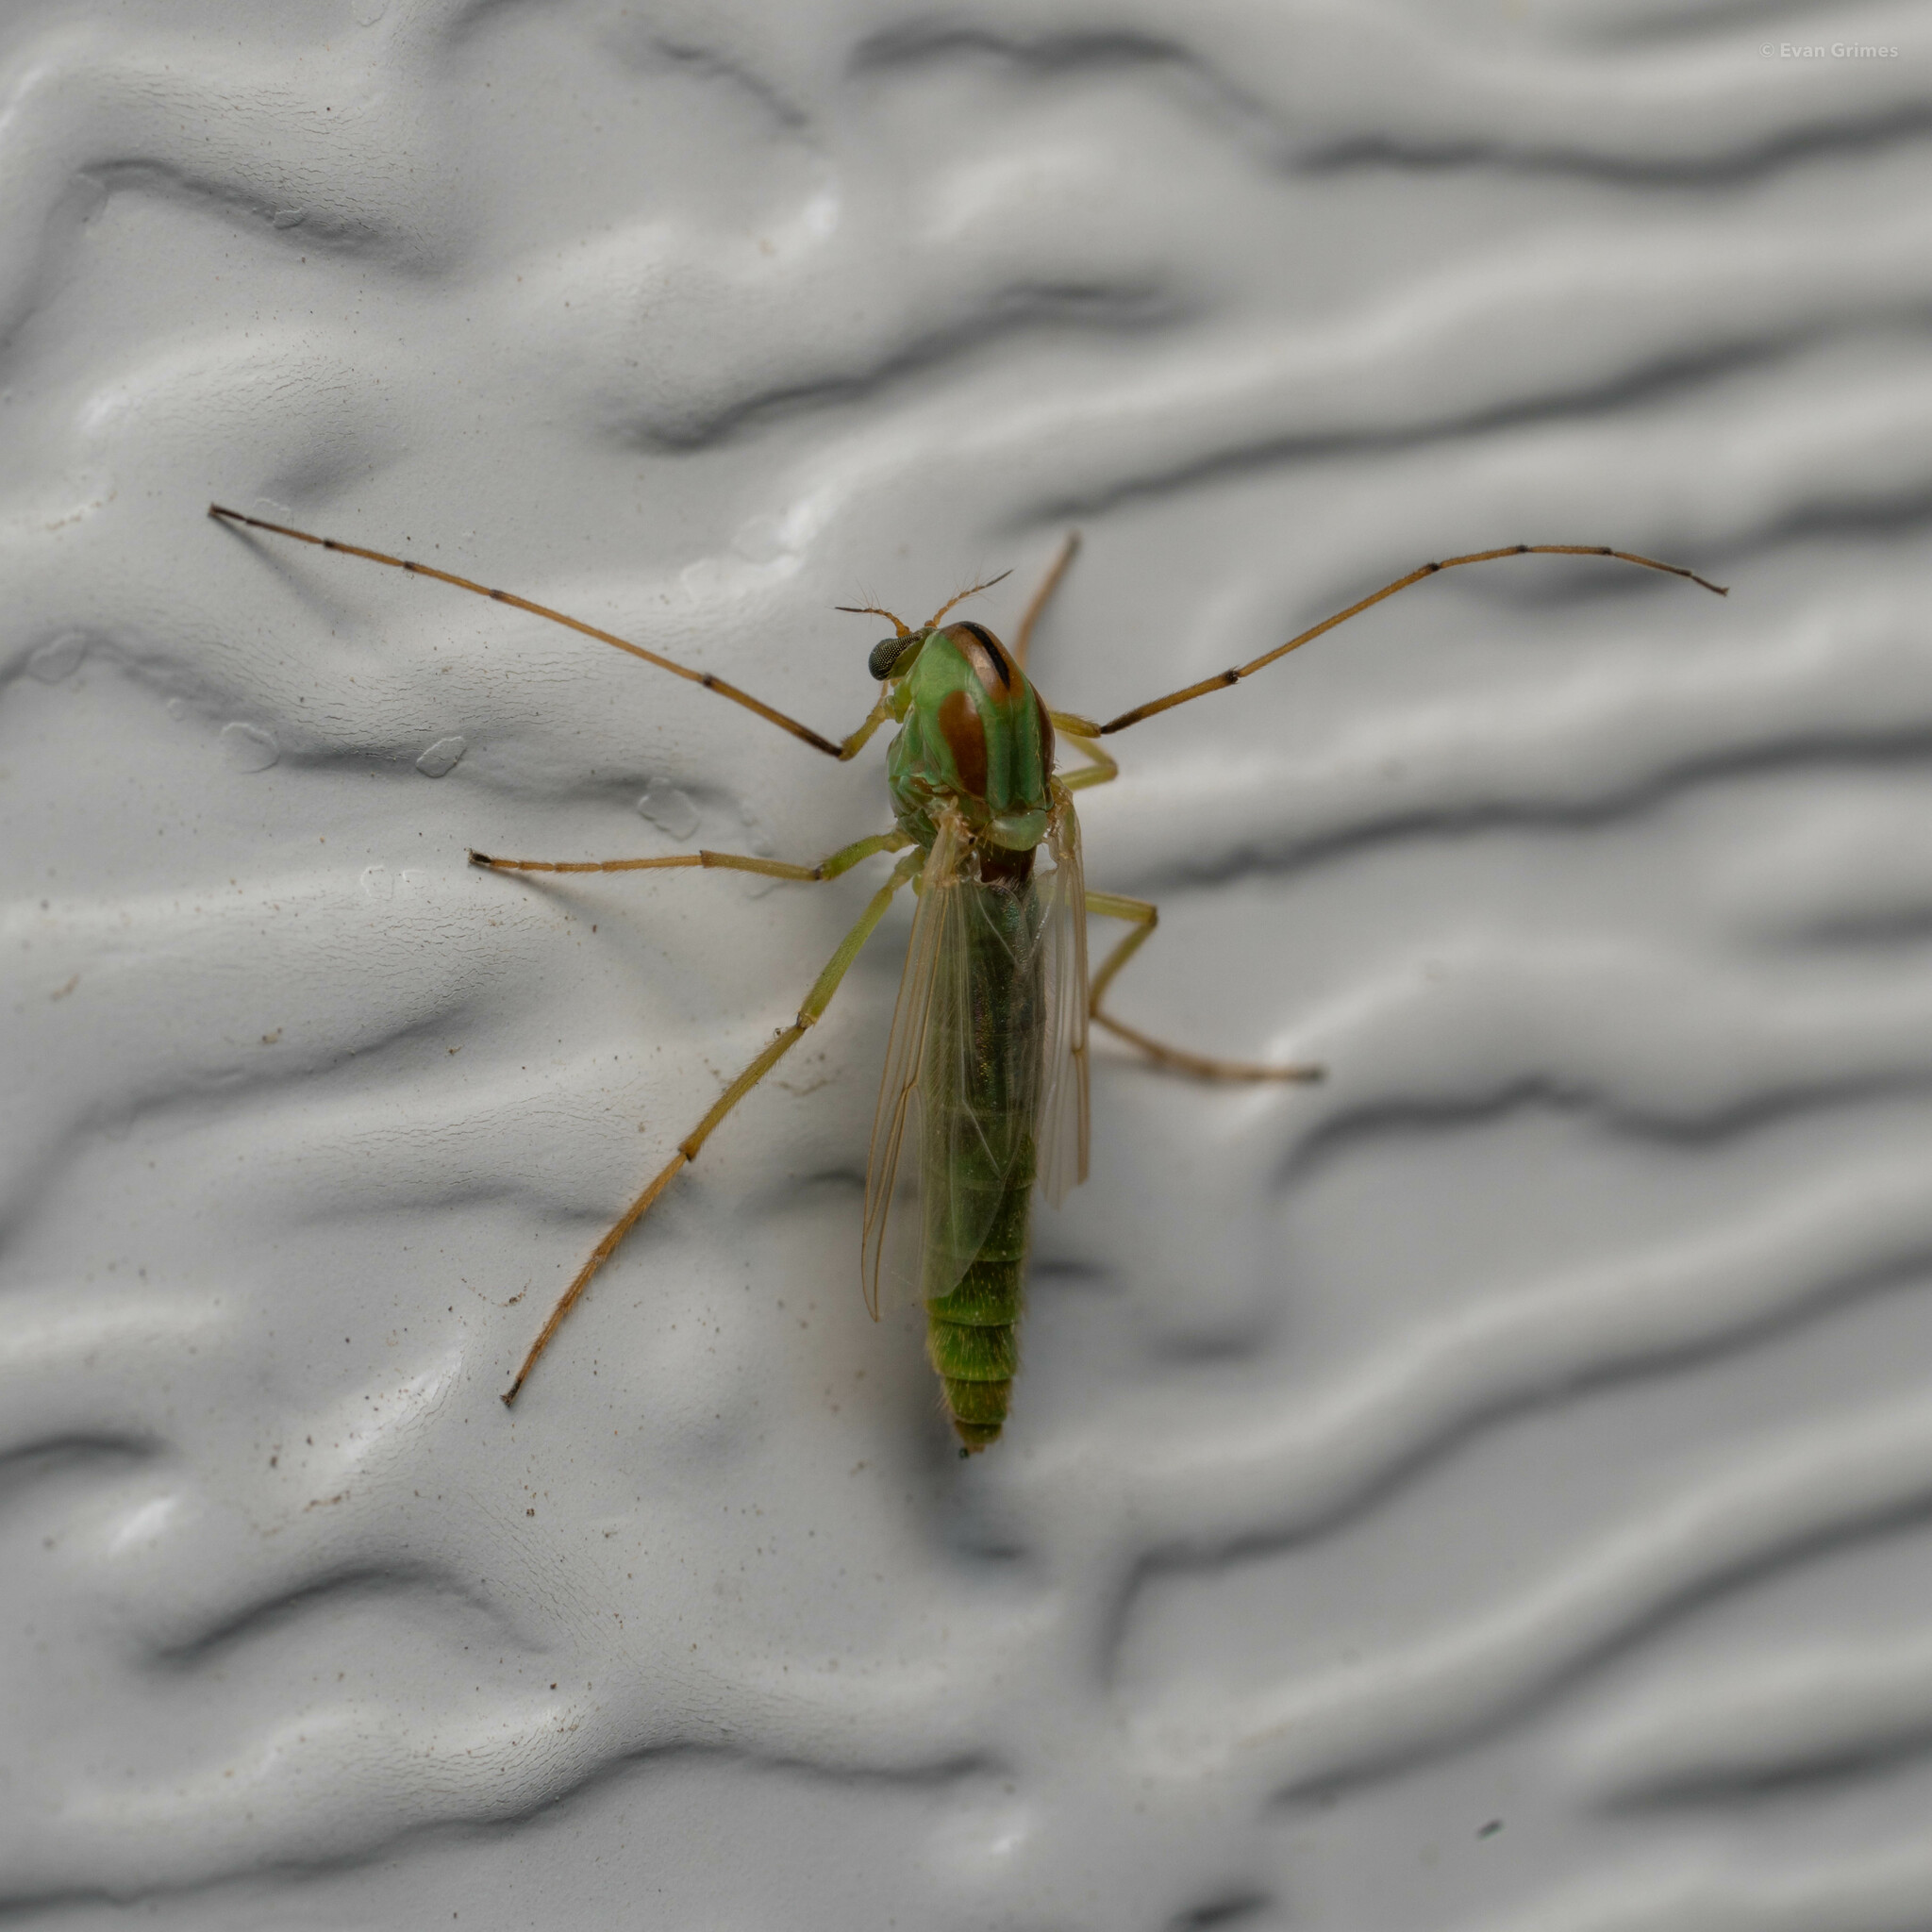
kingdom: Animalia
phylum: Arthropoda
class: Insecta
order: Diptera
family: Chironomidae
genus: Axarus
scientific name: Axarus
